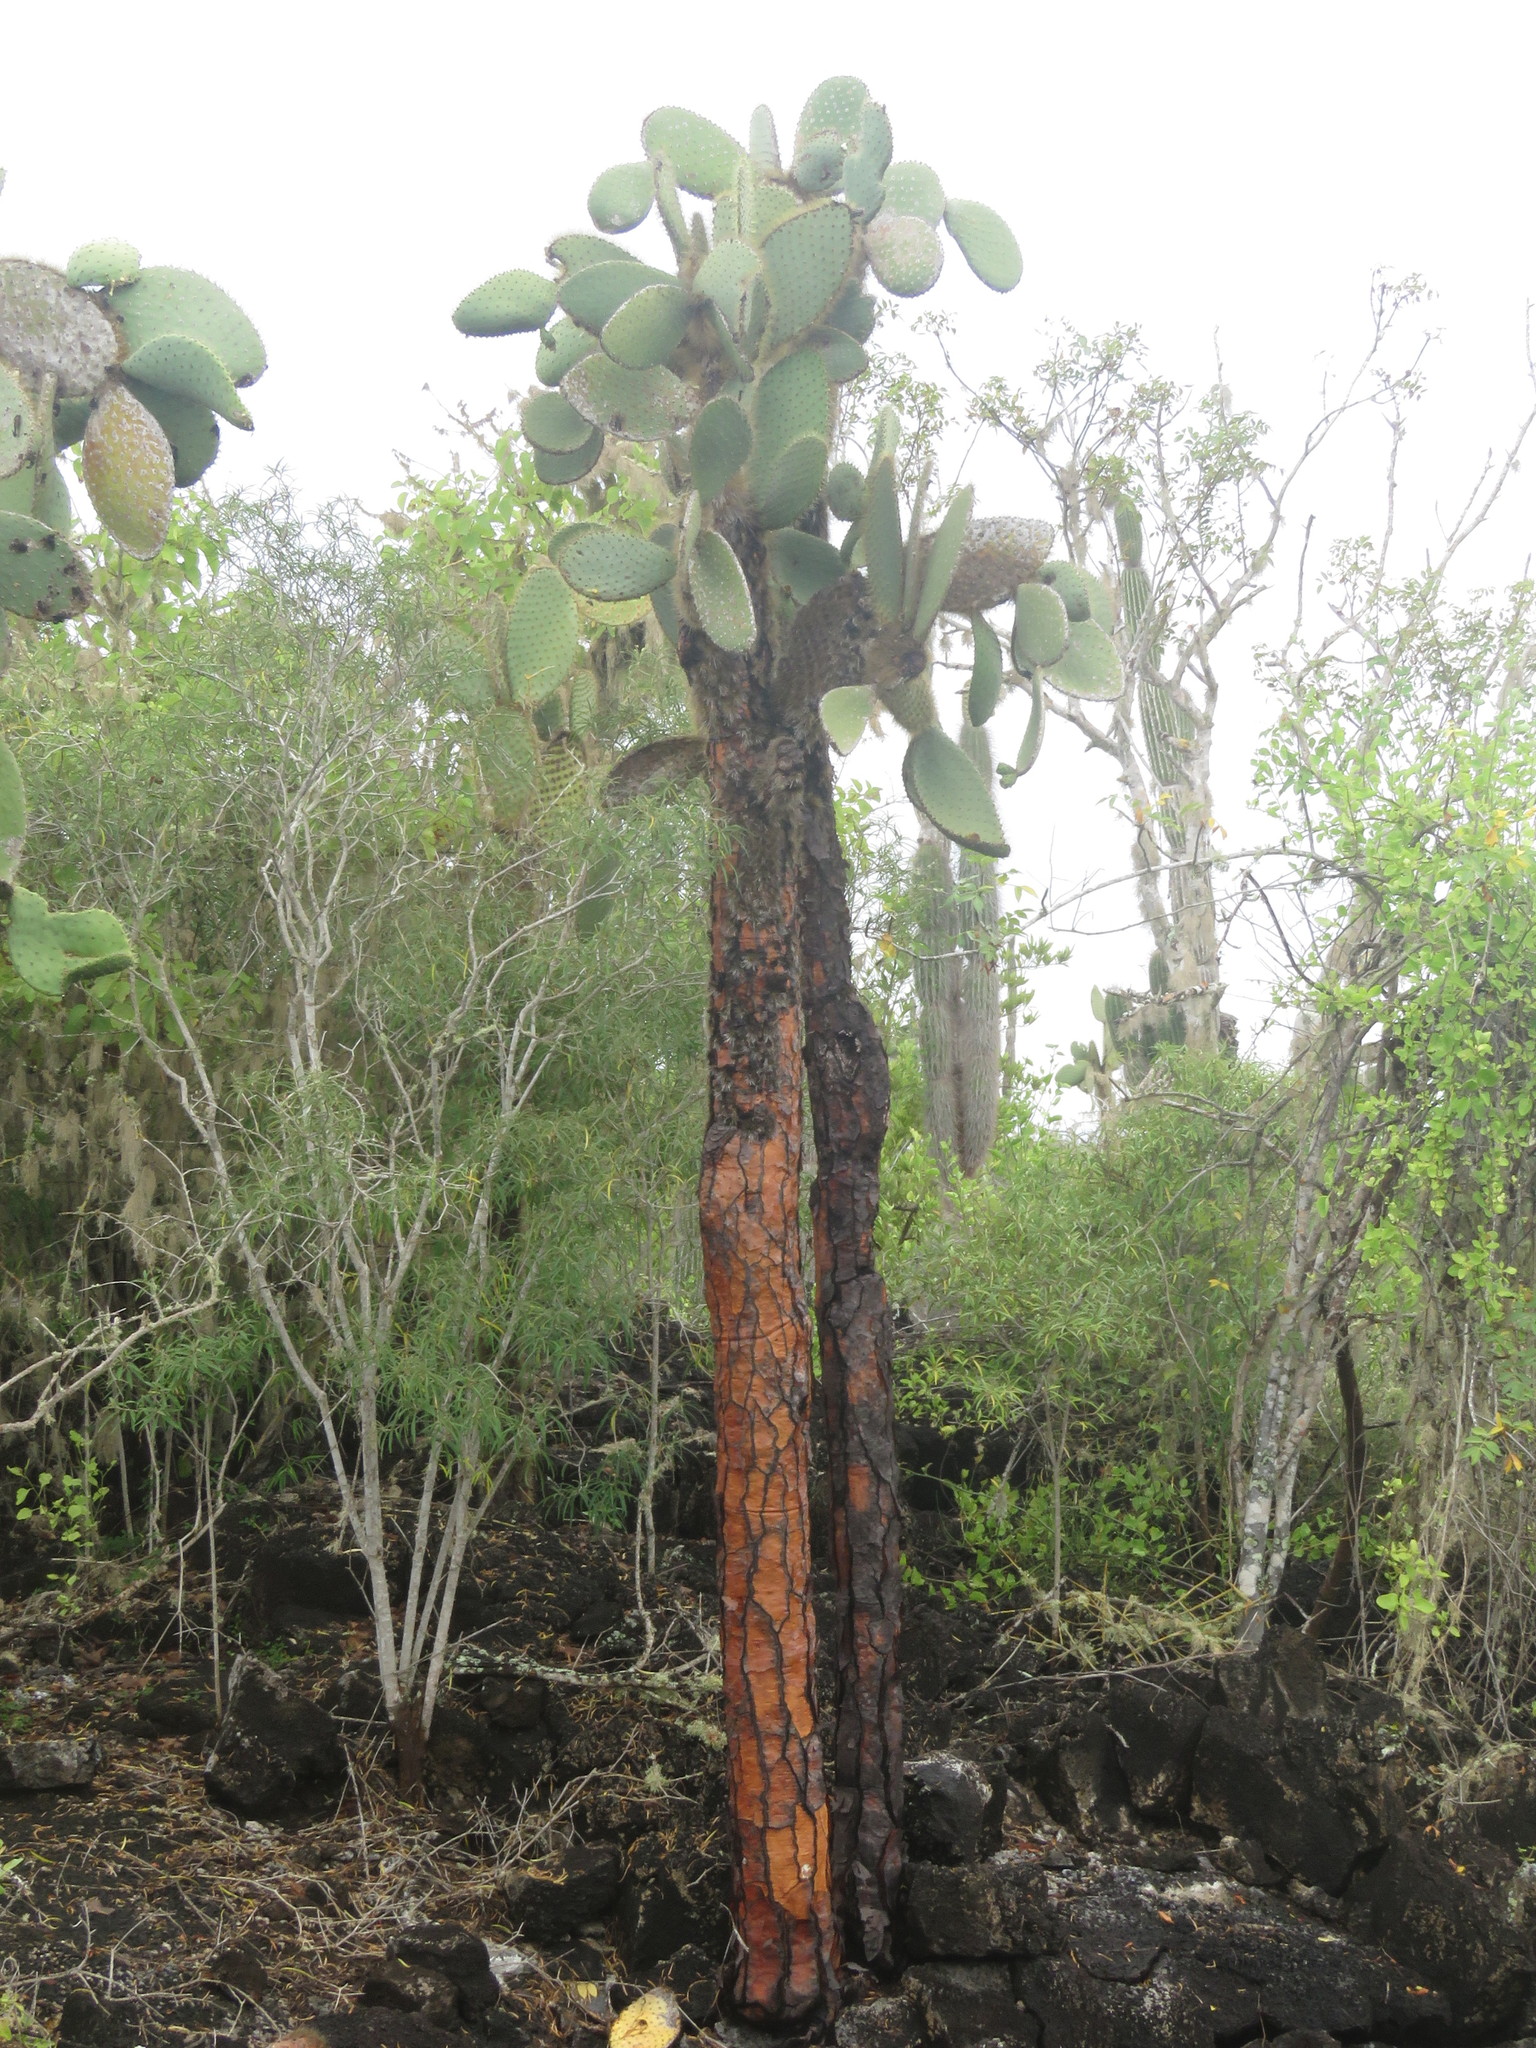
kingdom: Plantae
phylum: Tracheophyta
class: Magnoliopsida
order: Caryophyllales
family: Cactaceae
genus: Opuntia
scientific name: Opuntia galapageia
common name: Galápagos prickly pear
